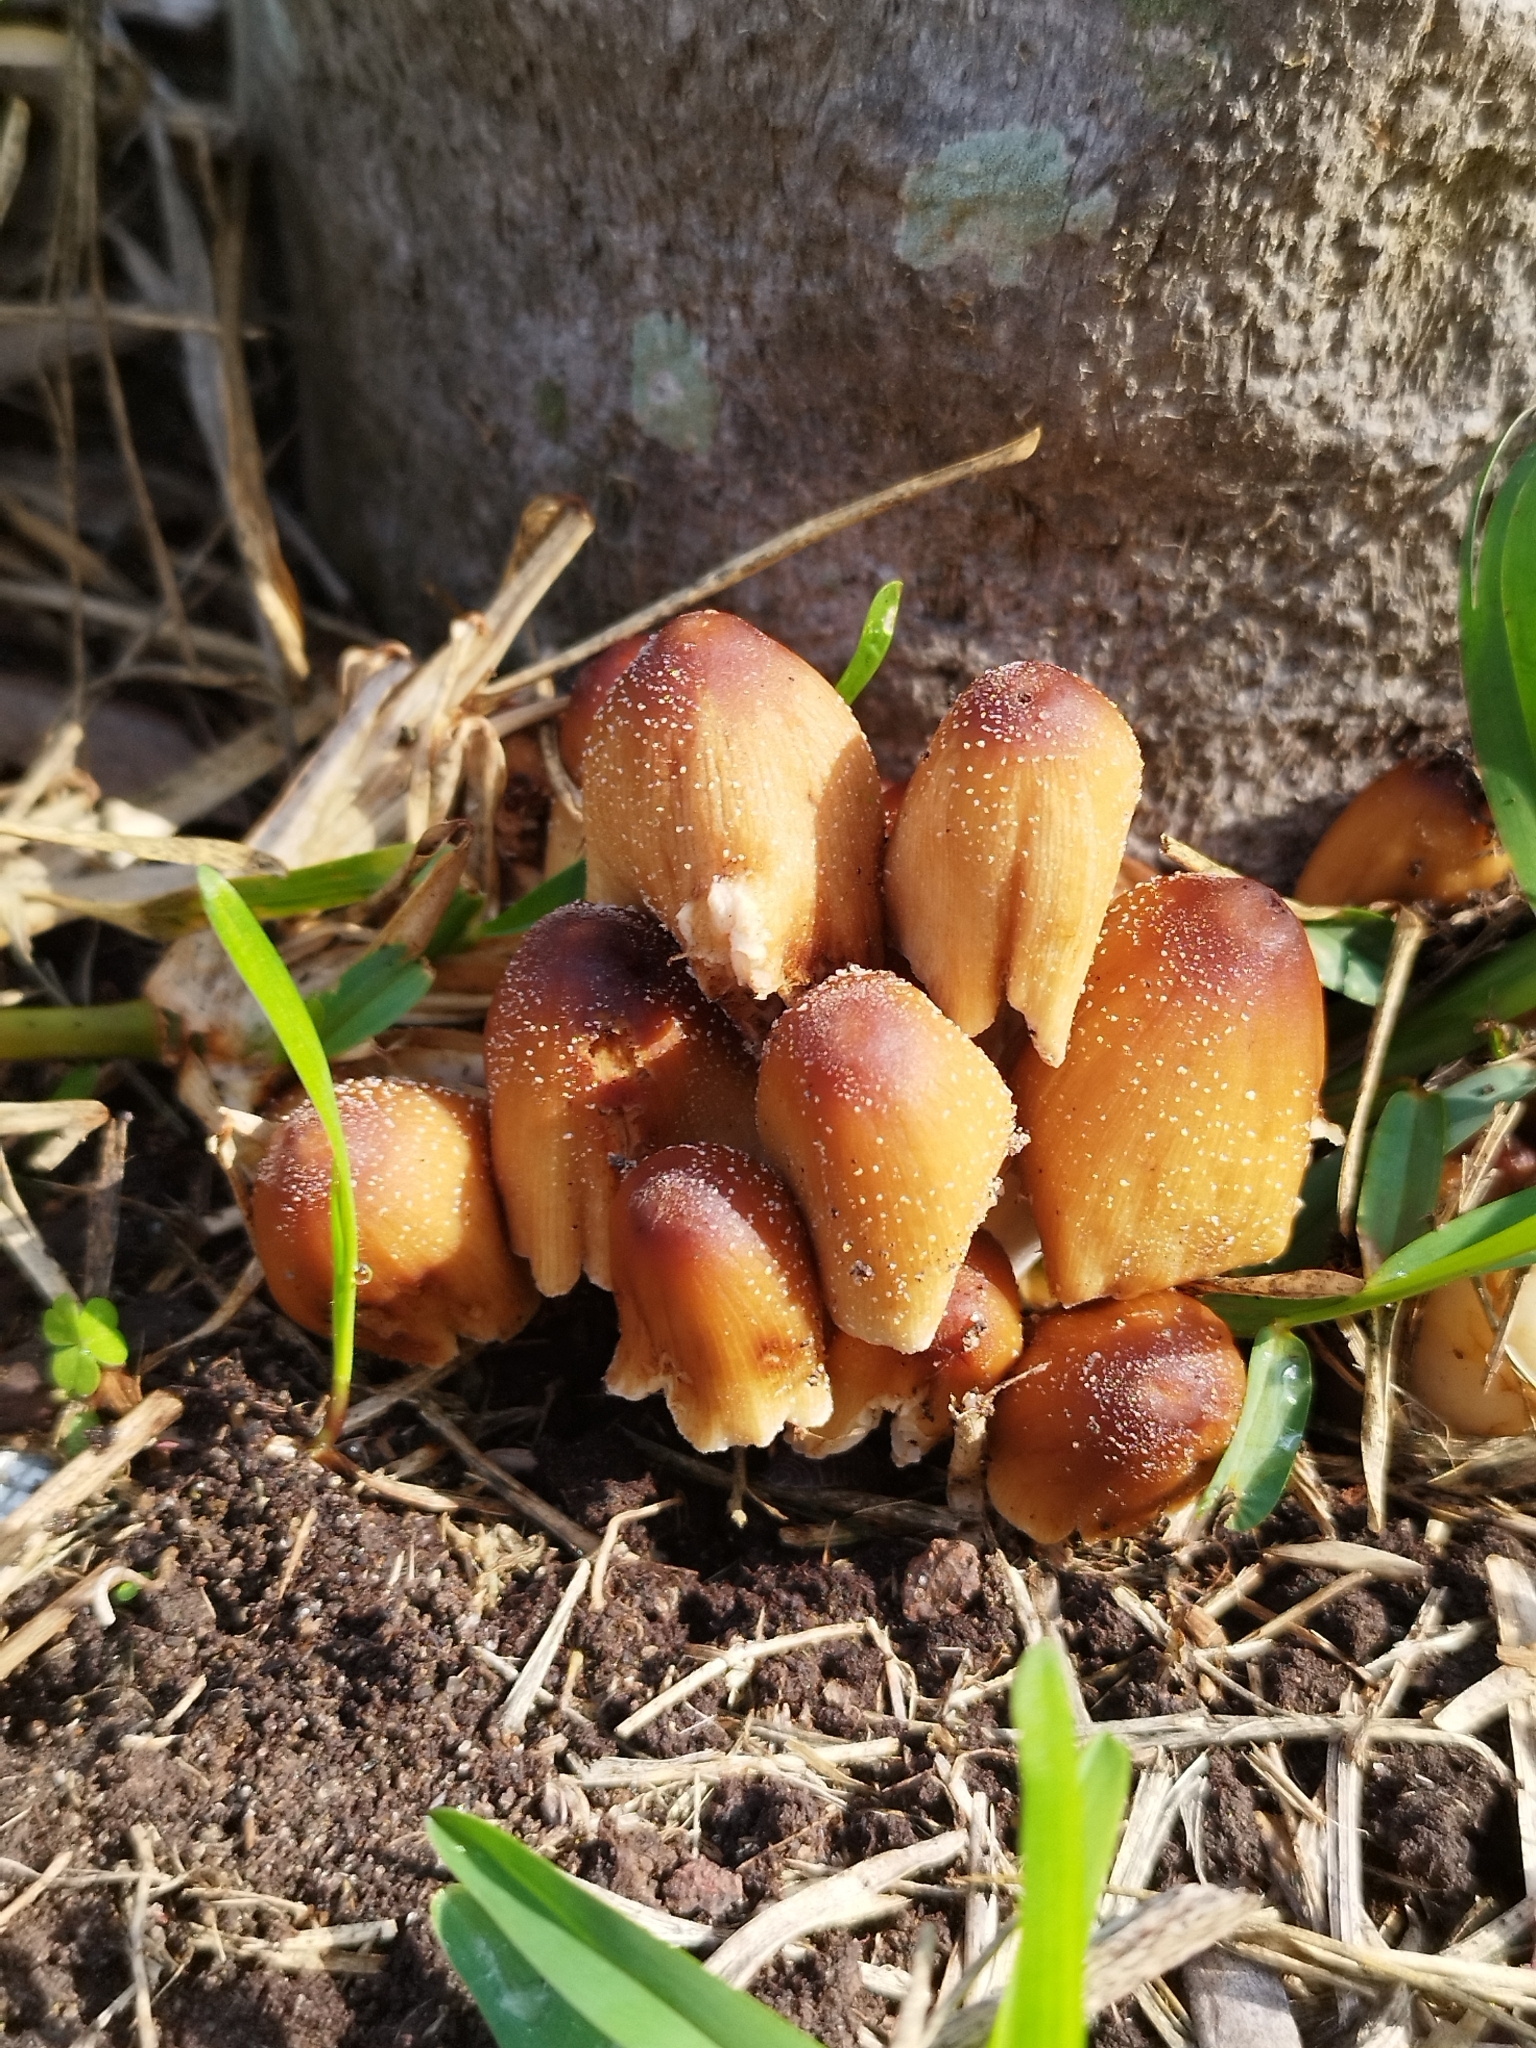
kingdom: Fungi
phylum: Basidiomycota
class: Agaricomycetes
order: Agaricales
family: Psathyrellaceae
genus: Coprinellus
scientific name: Coprinellus micaceus
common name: Glistening ink-cap
